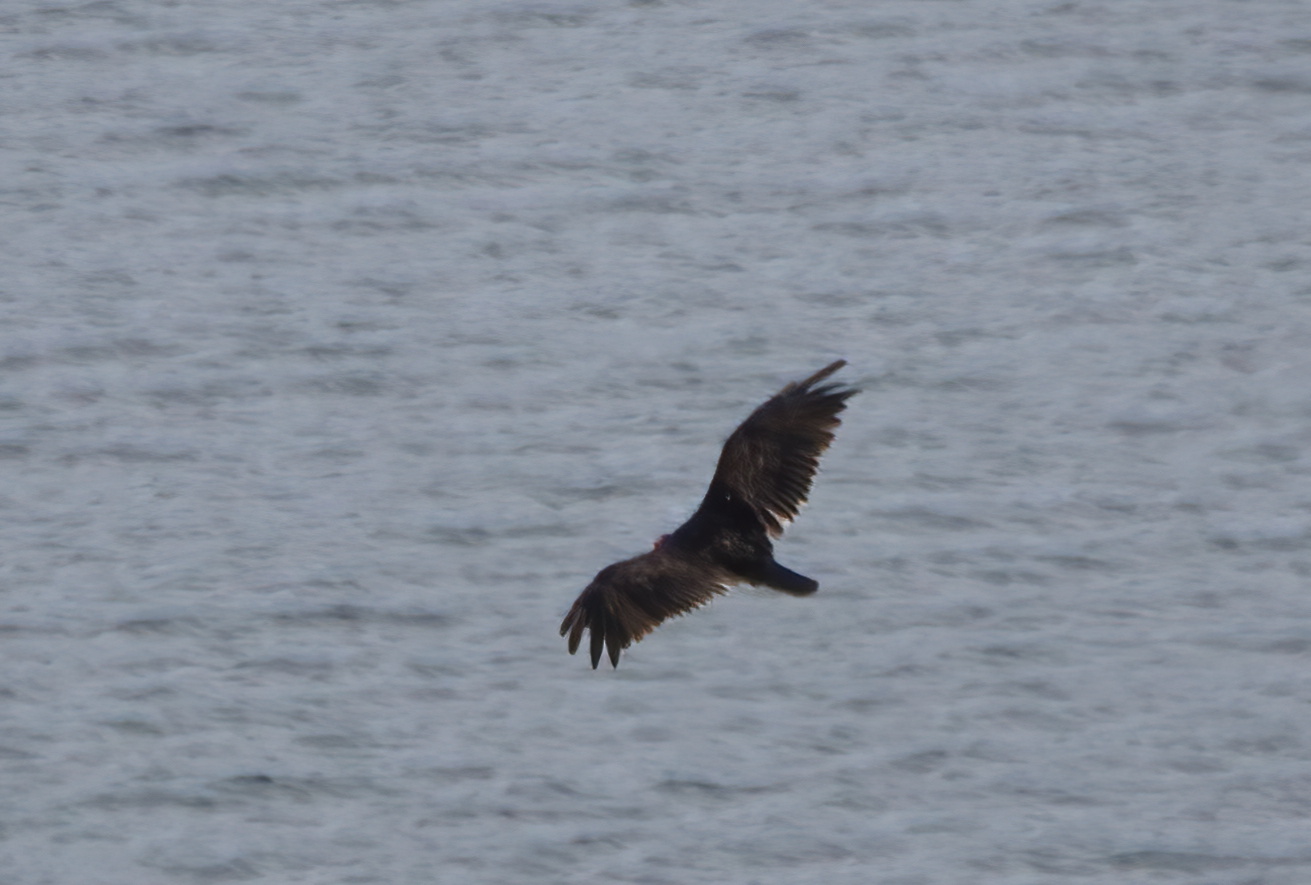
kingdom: Animalia
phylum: Chordata
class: Aves
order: Accipitriformes
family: Cathartidae
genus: Cathartes
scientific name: Cathartes aura
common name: Turkey vulture
